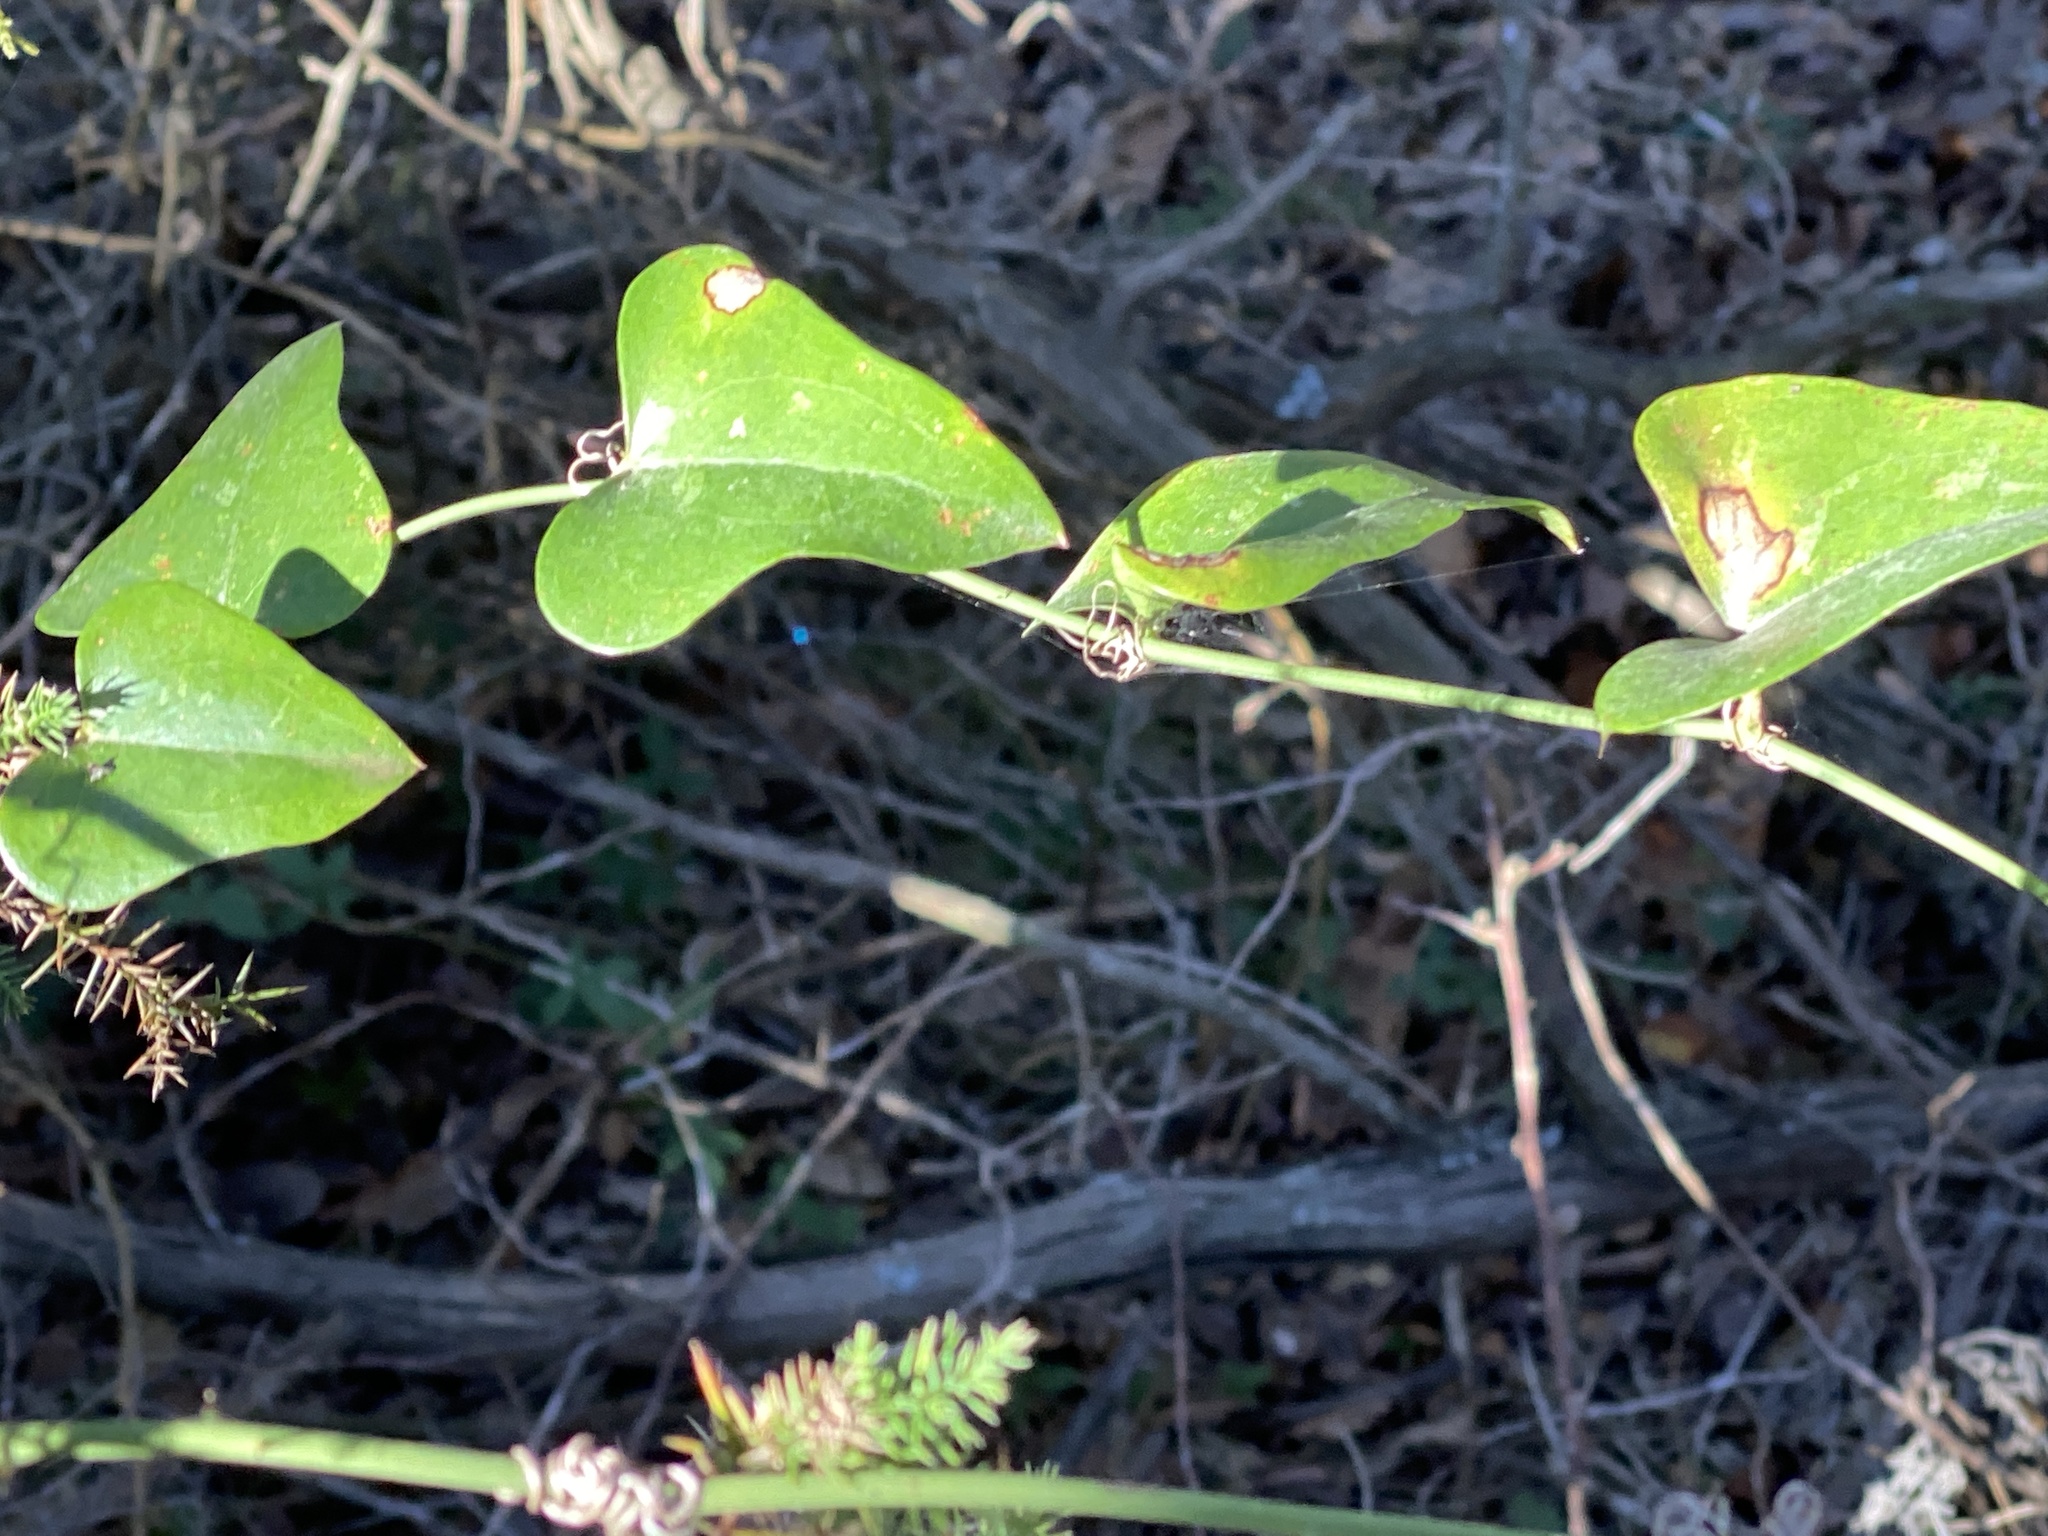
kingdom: Plantae
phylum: Tracheophyta
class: Liliopsida
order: Liliales
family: Smilacaceae
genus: Smilax
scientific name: Smilax bona-nox
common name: Catbrier
